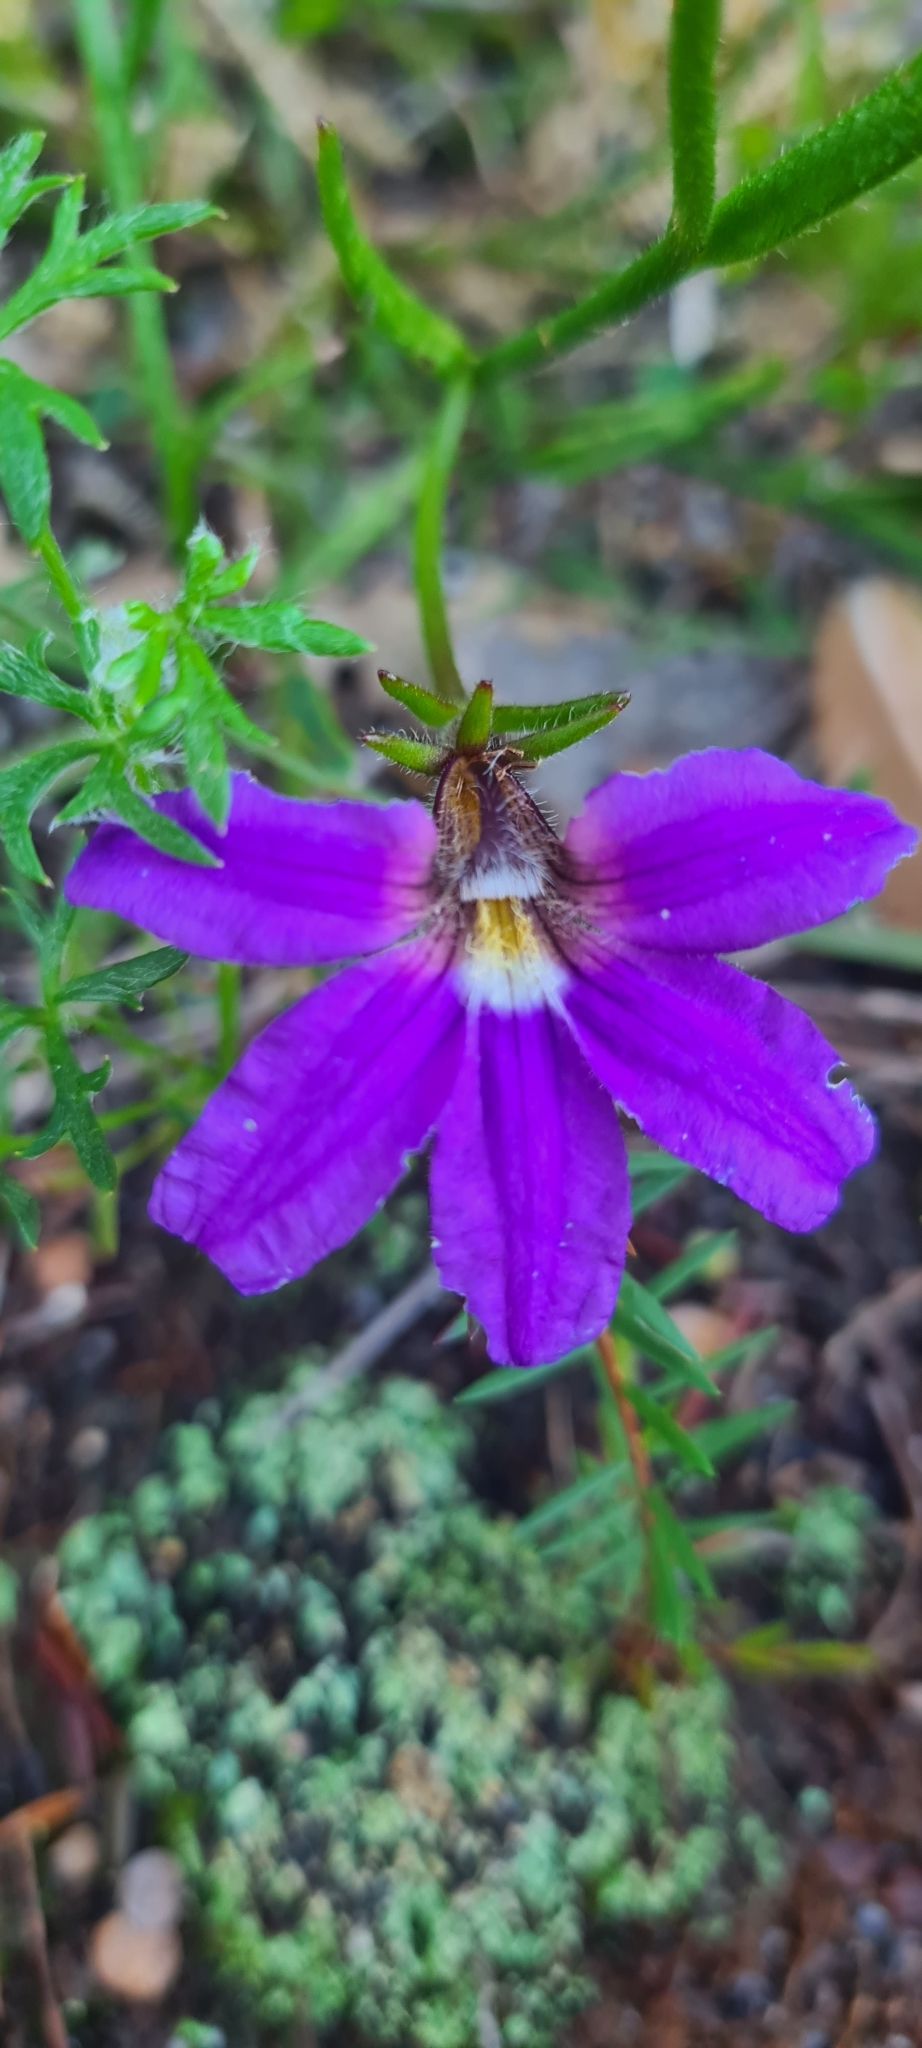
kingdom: Plantae
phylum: Tracheophyta
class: Magnoliopsida
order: Asterales
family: Goodeniaceae
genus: Scaevola
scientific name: Scaevola ramosissima
